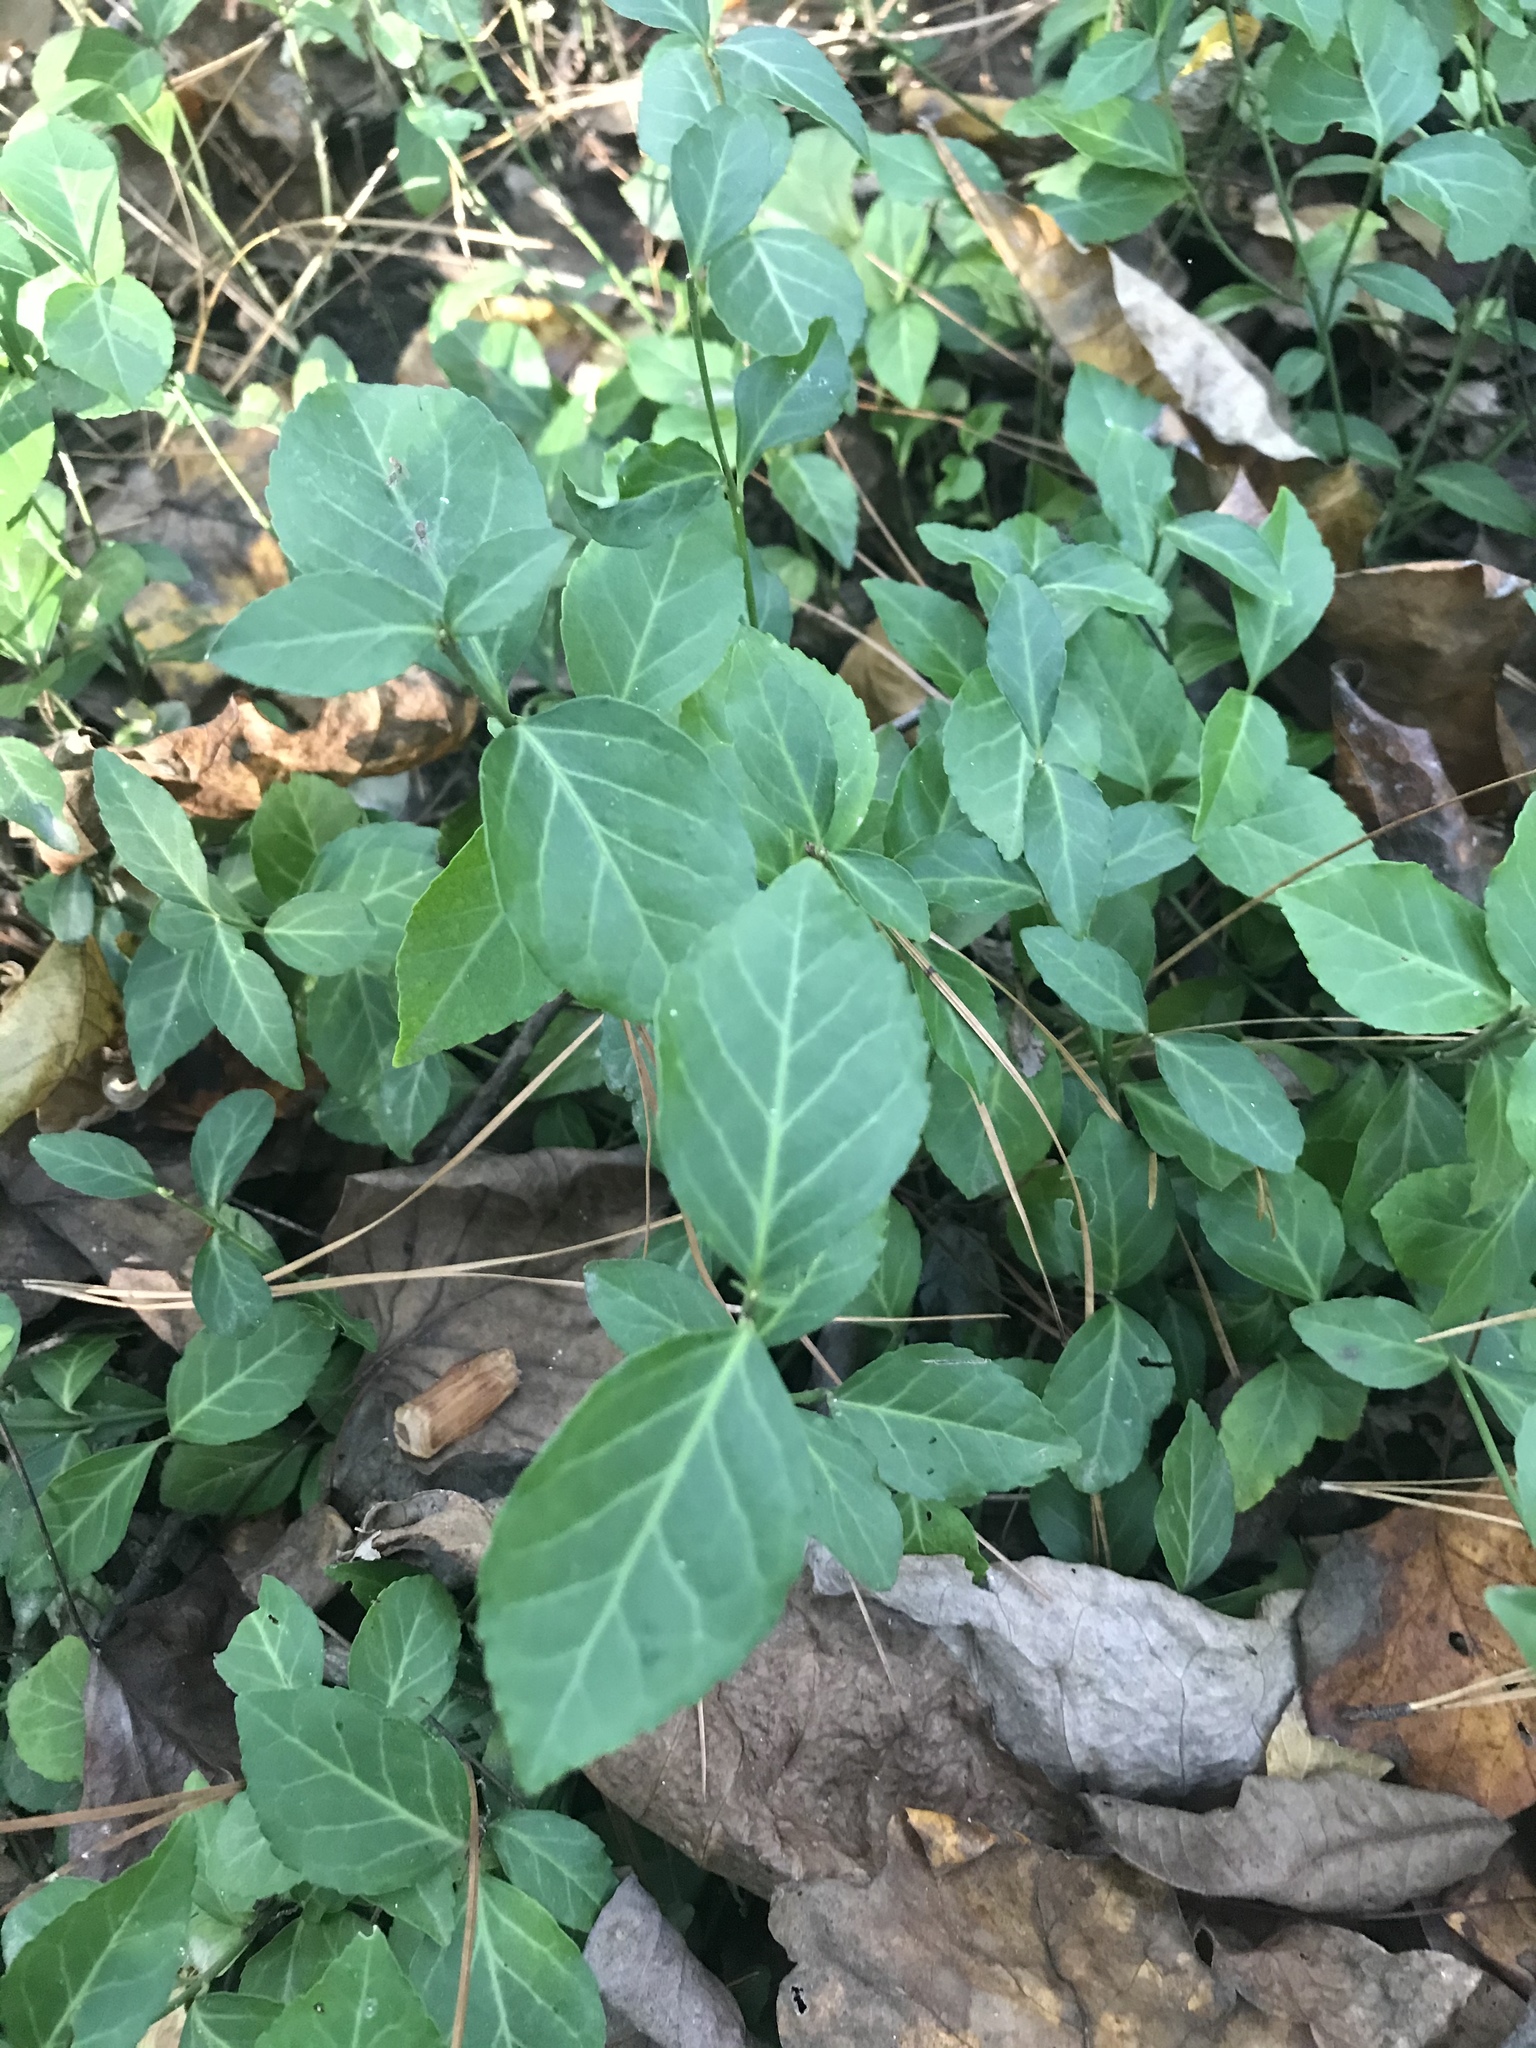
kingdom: Plantae
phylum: Tracheophyta
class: Magnoliopsida
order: Celastrales
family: Celastraceae
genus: Euonymus
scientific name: Euonymus fortunei
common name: Climbing euonymus
